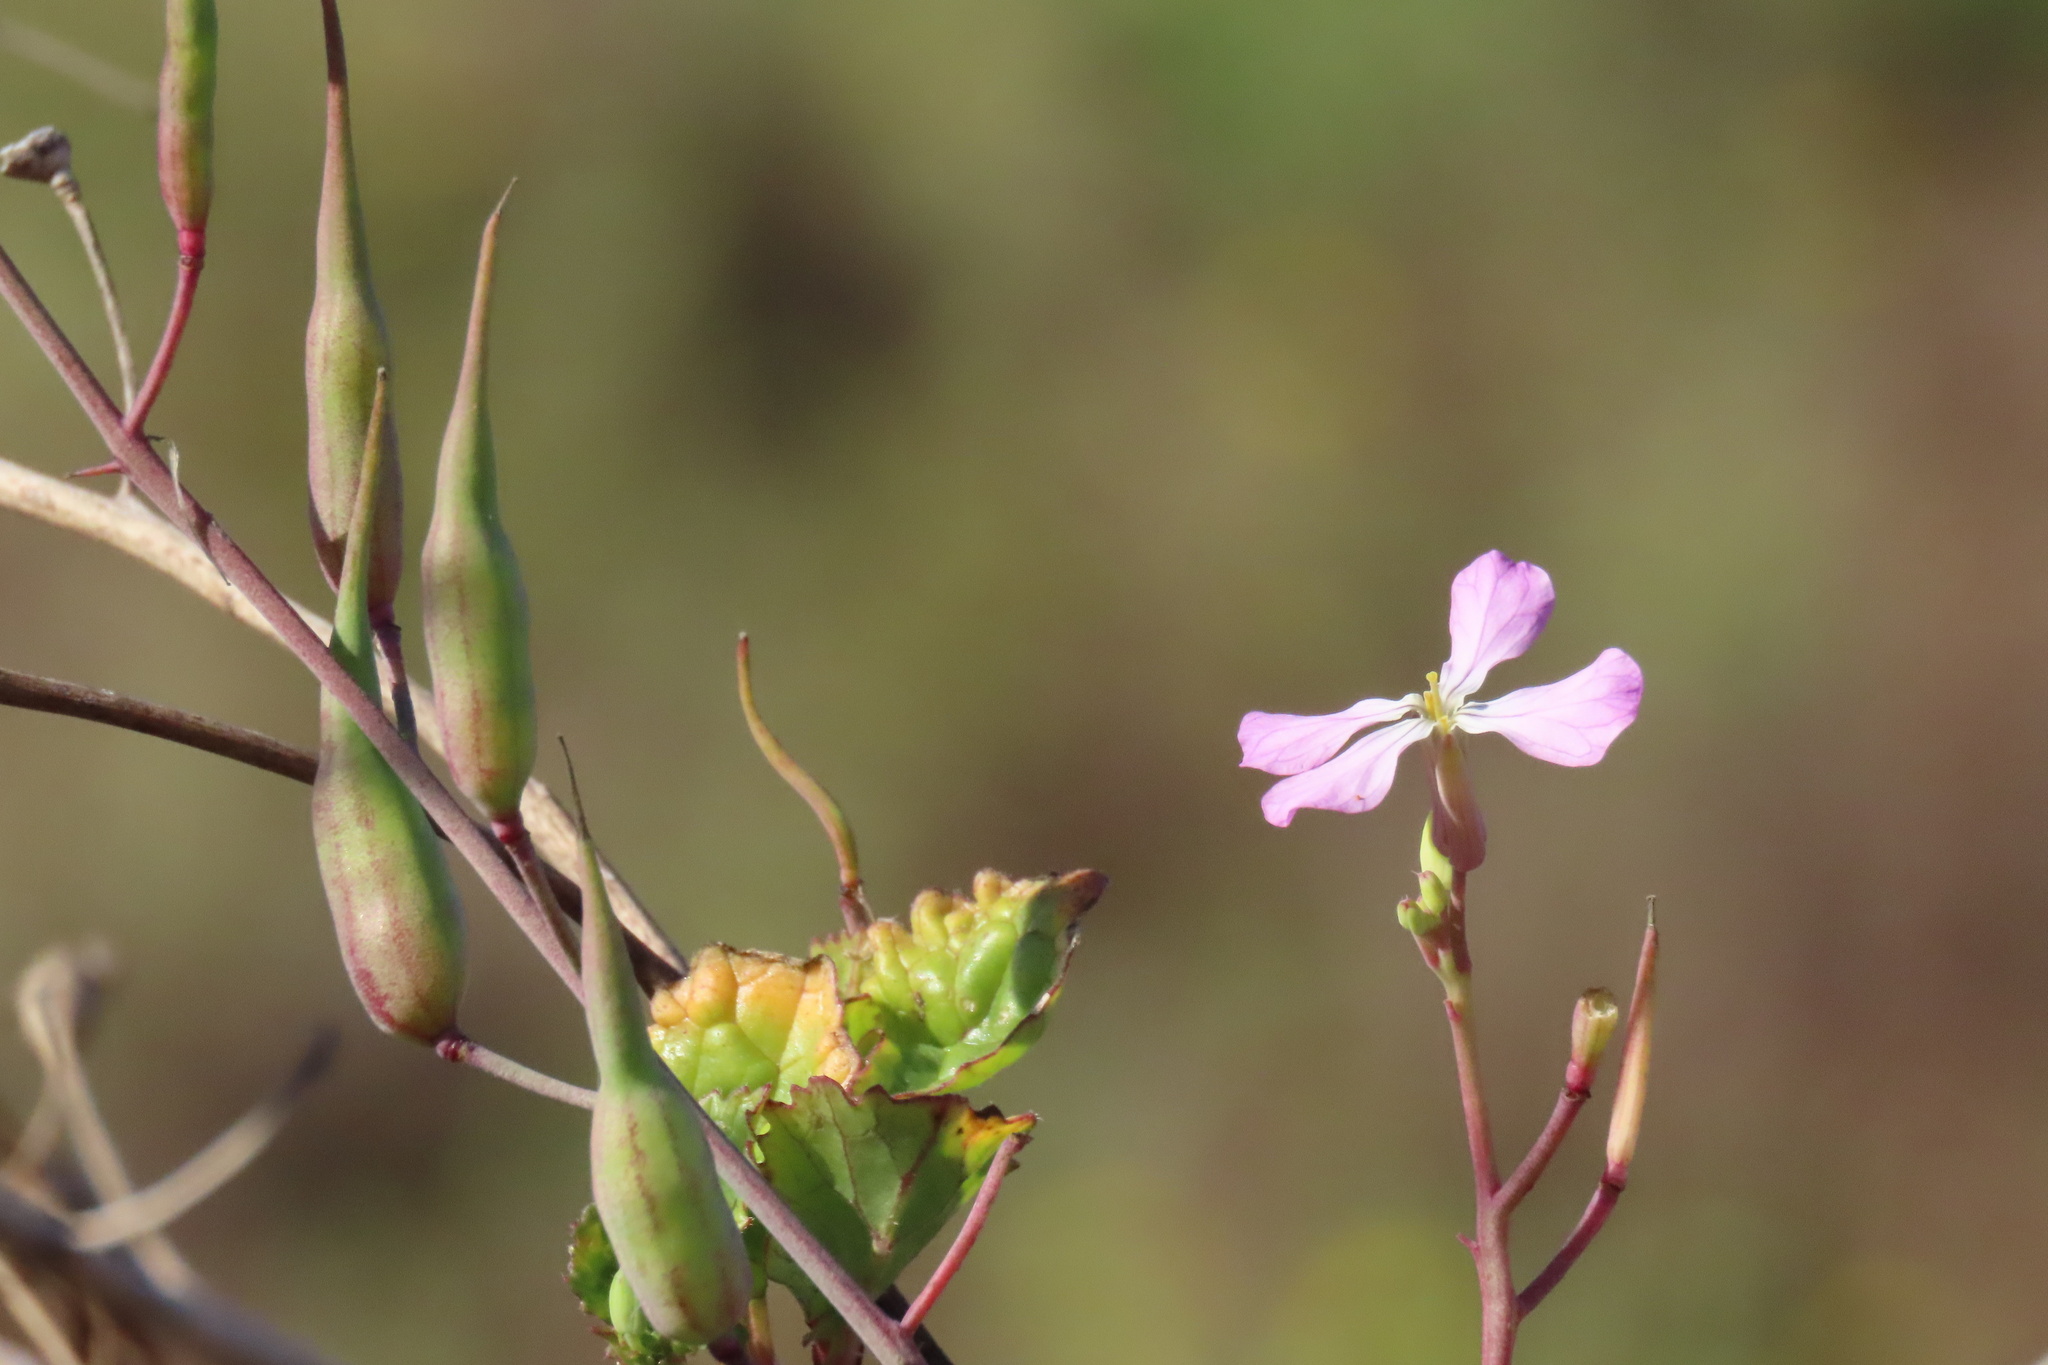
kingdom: Plantae
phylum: Tracheophyta
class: Magnoliopsida
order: Brassicales
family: Brassicaceae
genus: Raphanus
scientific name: Raphanus sativus
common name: Cultivated radish
